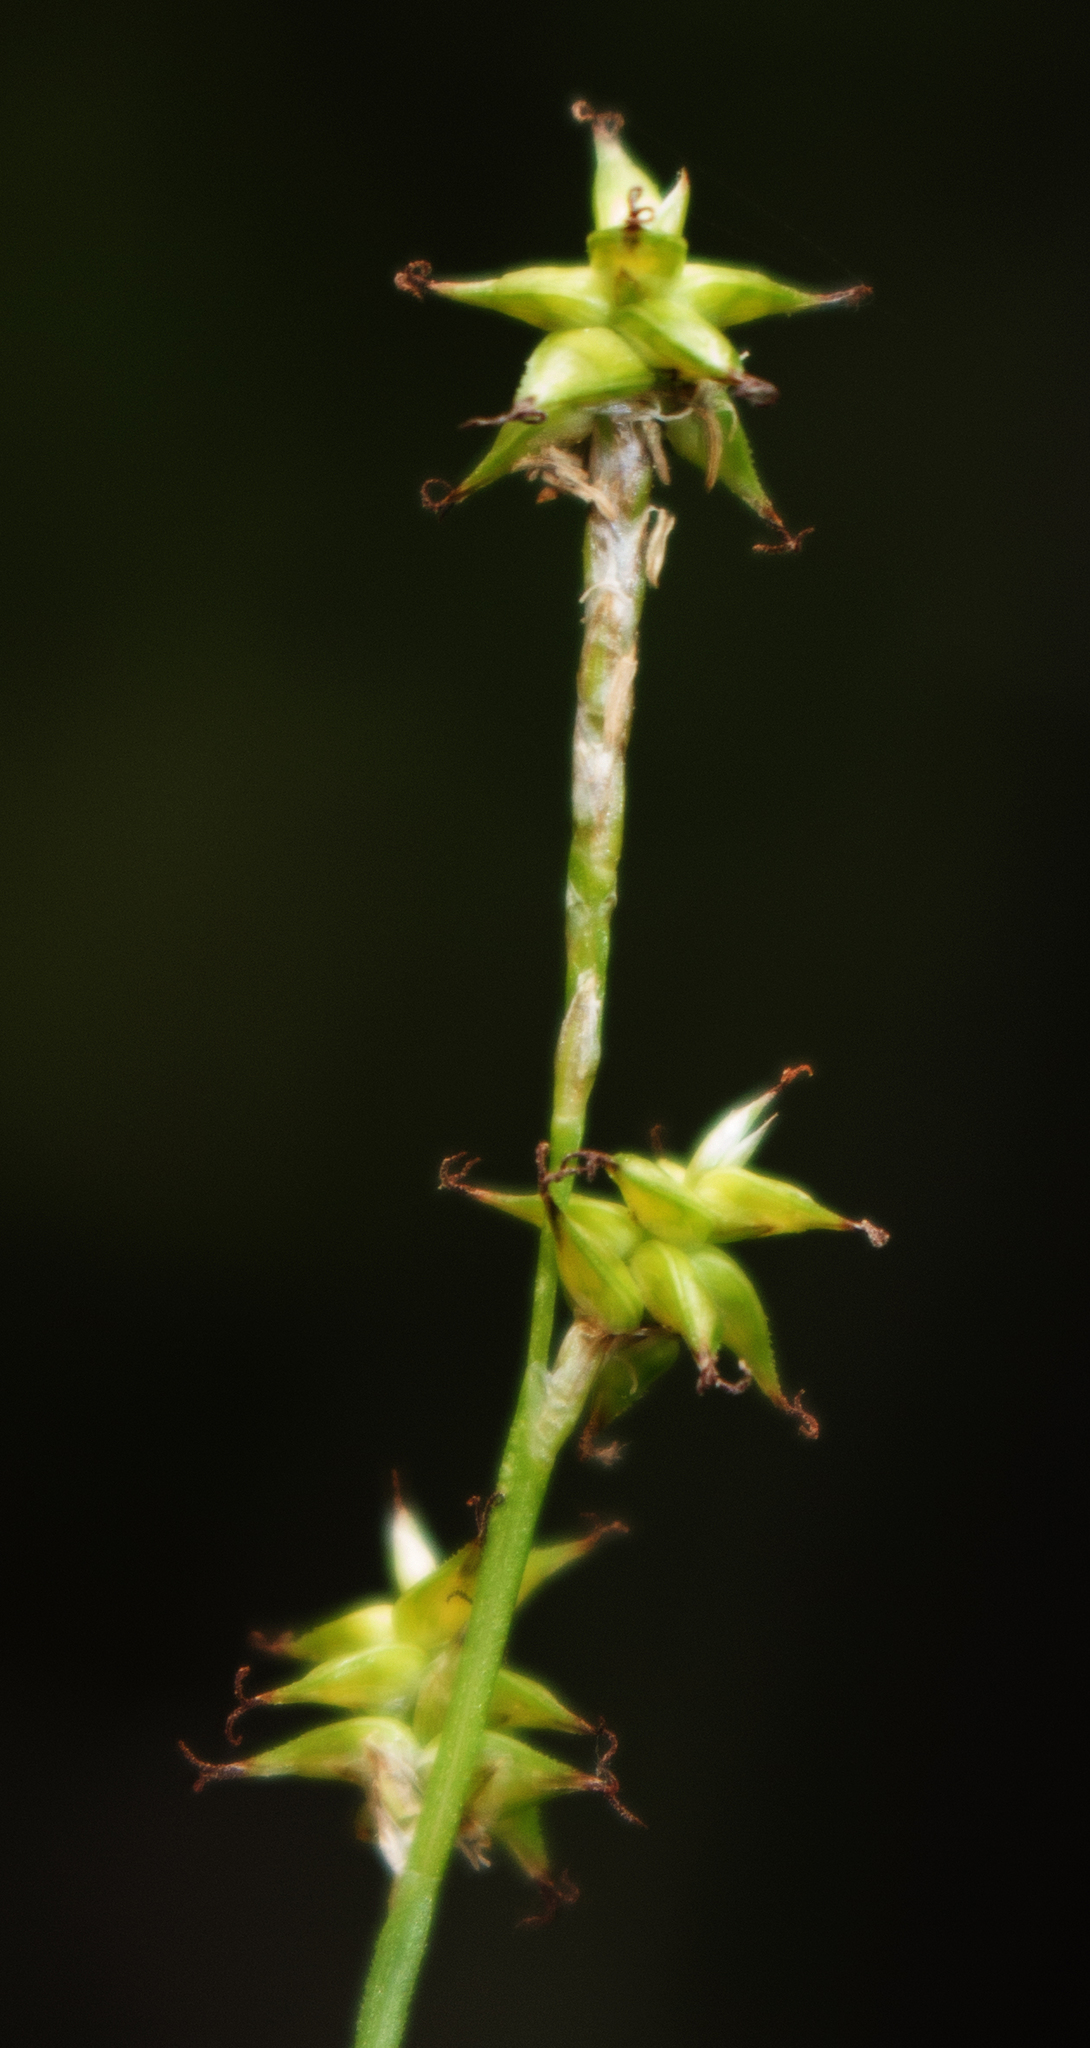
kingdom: Plantae
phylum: Tracheophyta
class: Liliopsida
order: Poales
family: Cyperaceae
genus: Carex
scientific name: Carex interior
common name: Inland sedge
